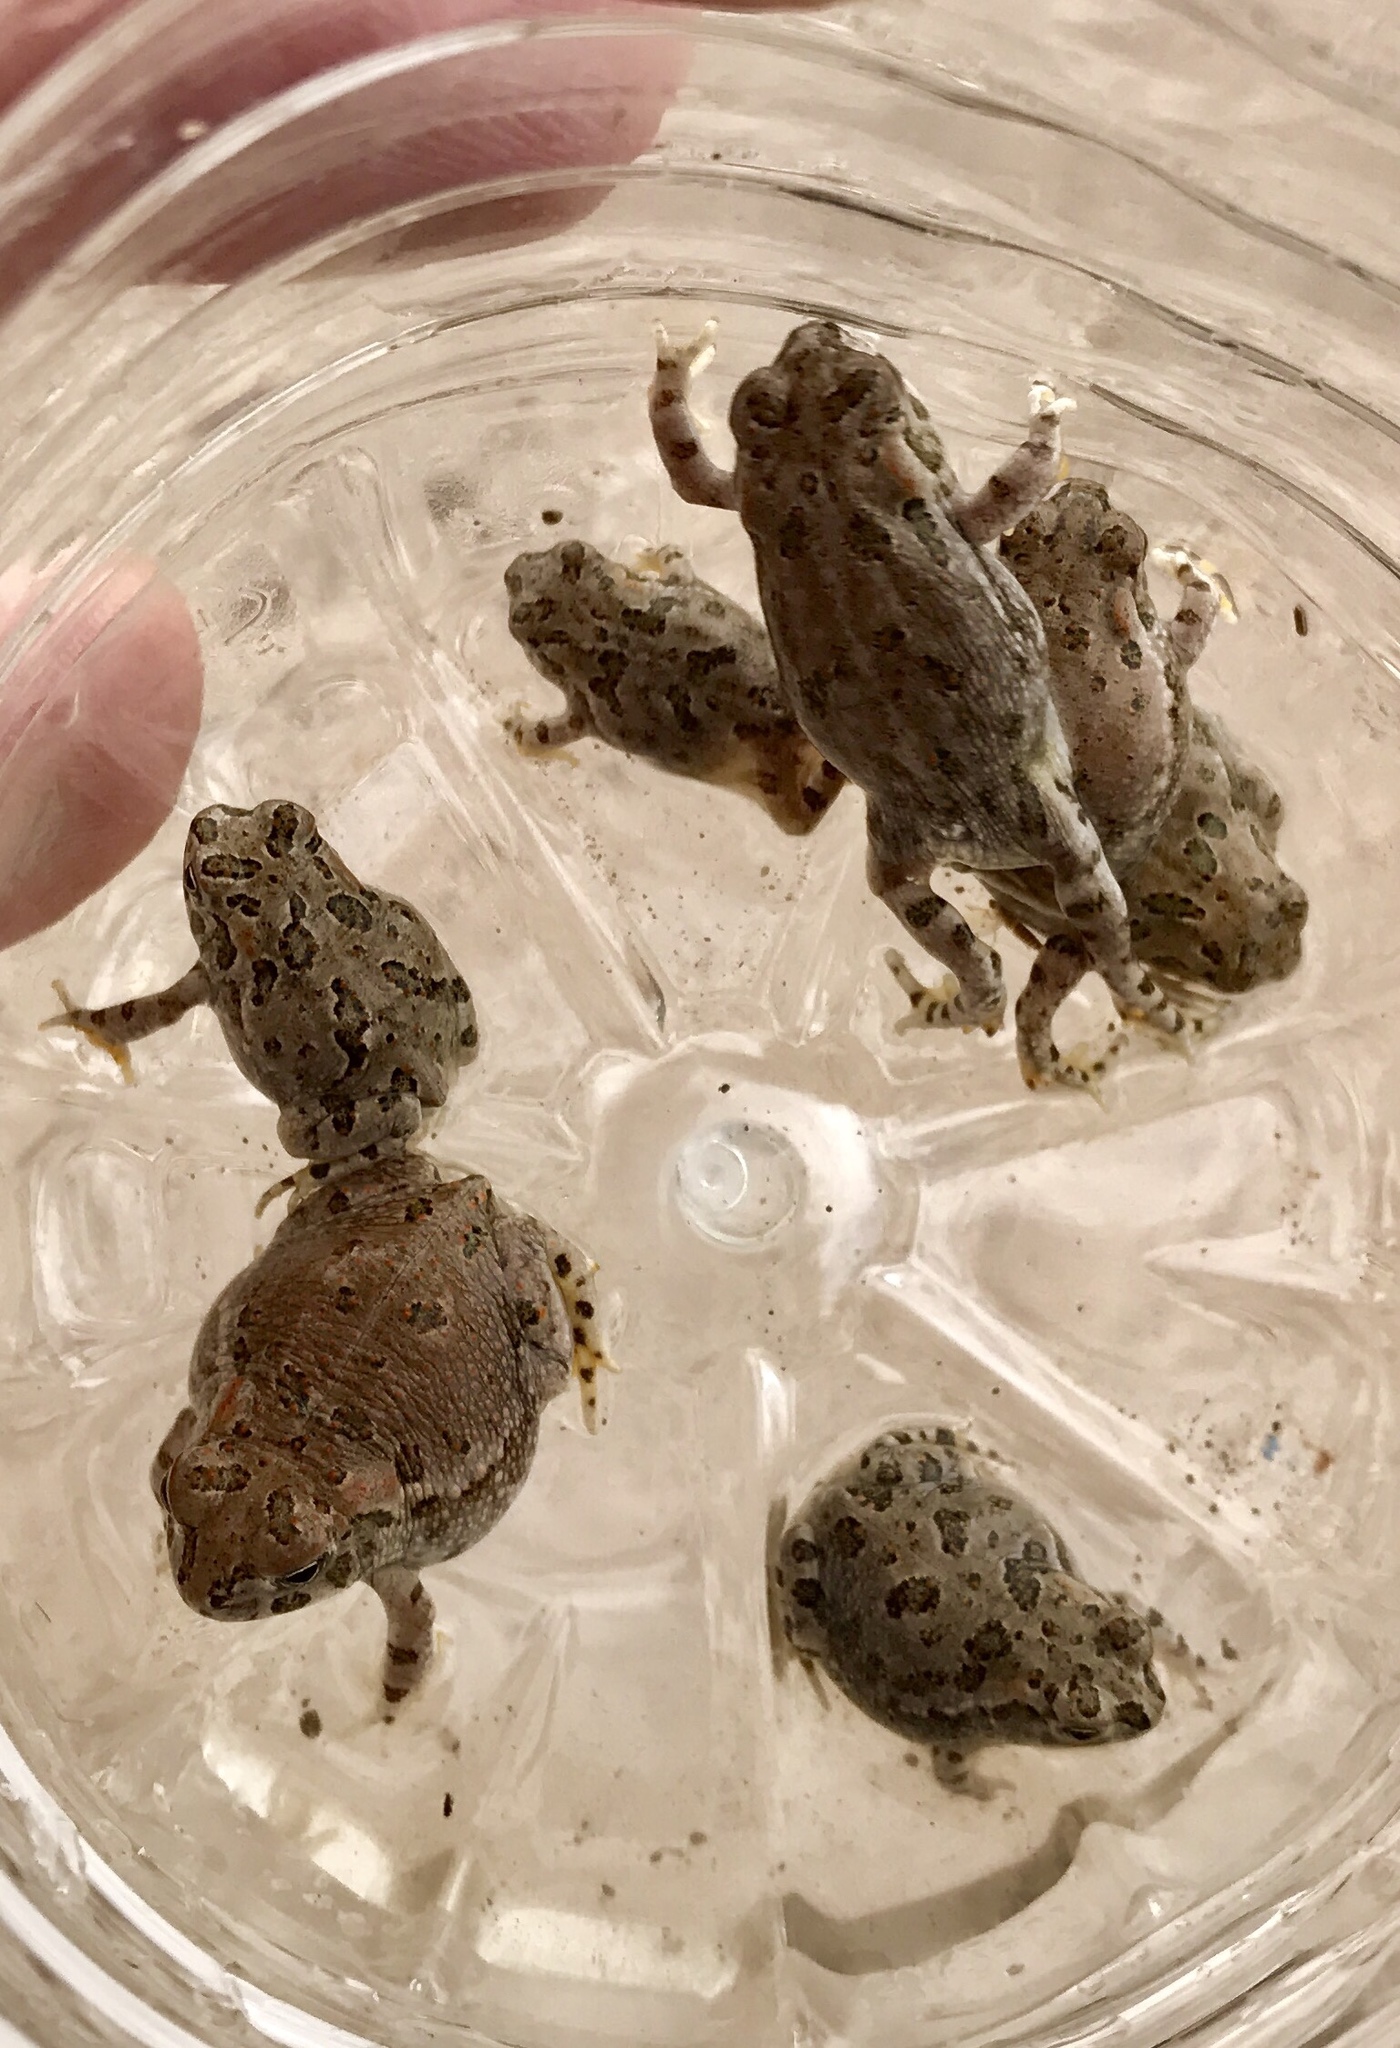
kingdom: Animalia
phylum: Chordata
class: Amphibia
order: Anura
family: Bufonidae
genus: Anaxyrus
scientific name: Anaxyrus cognatus
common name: Great plains toad
